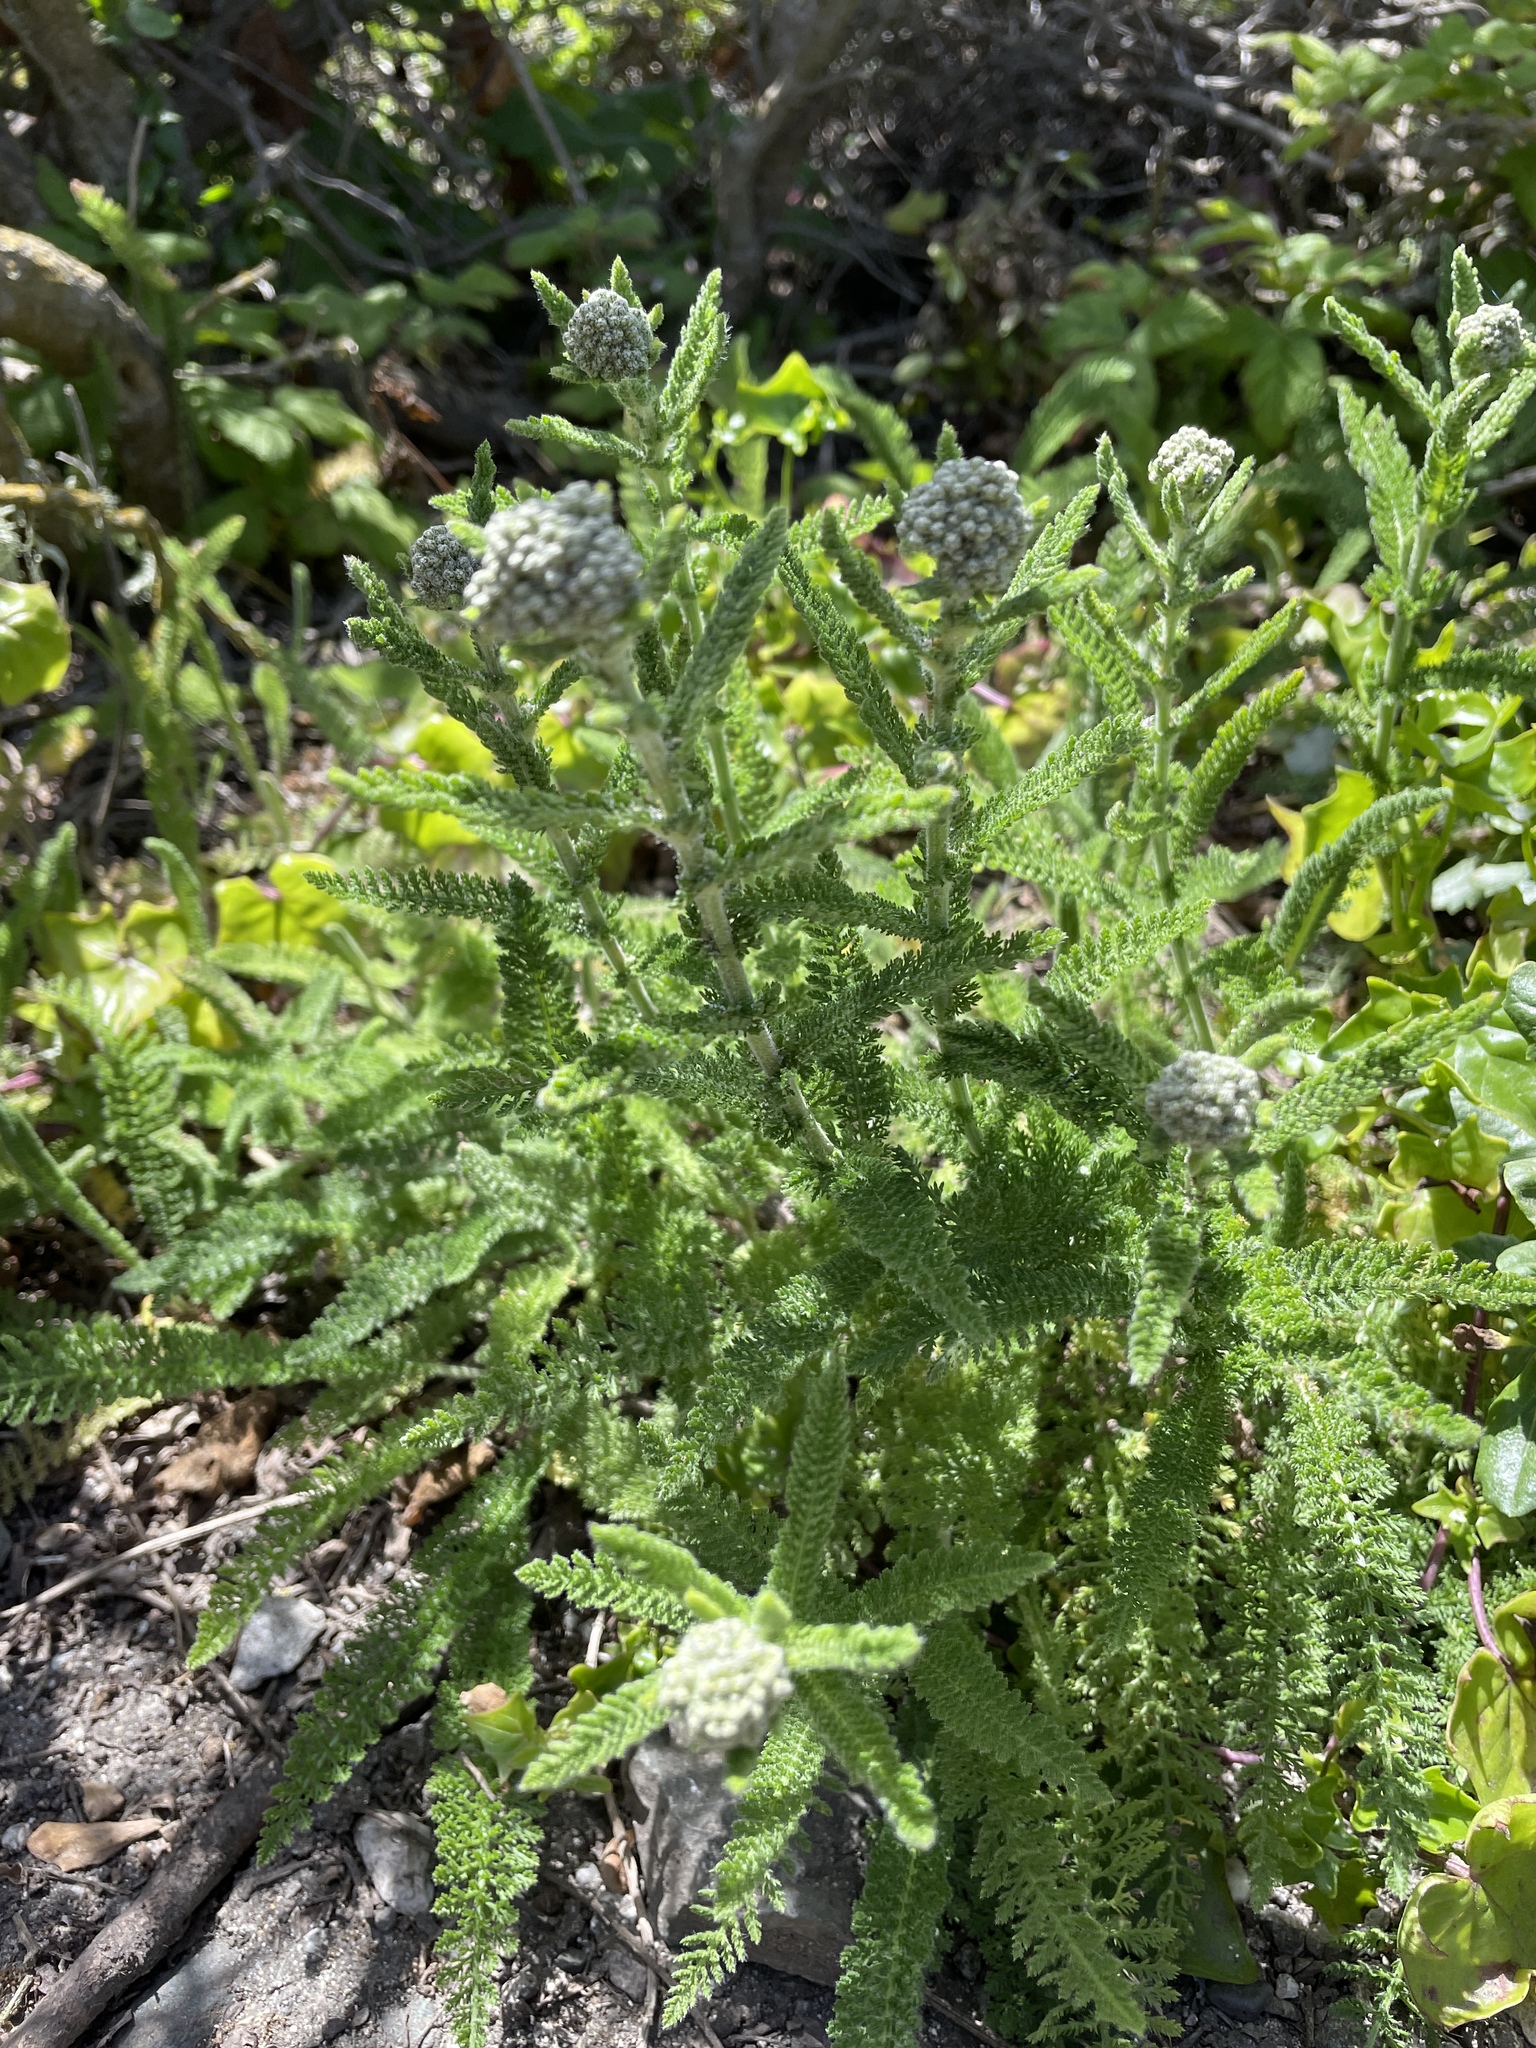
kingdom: Plantae
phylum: Tracheophyta
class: Magnoliopsida
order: Asterales
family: Asteraceae
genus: Achillea
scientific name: Achillea millefolium
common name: Yarrow
